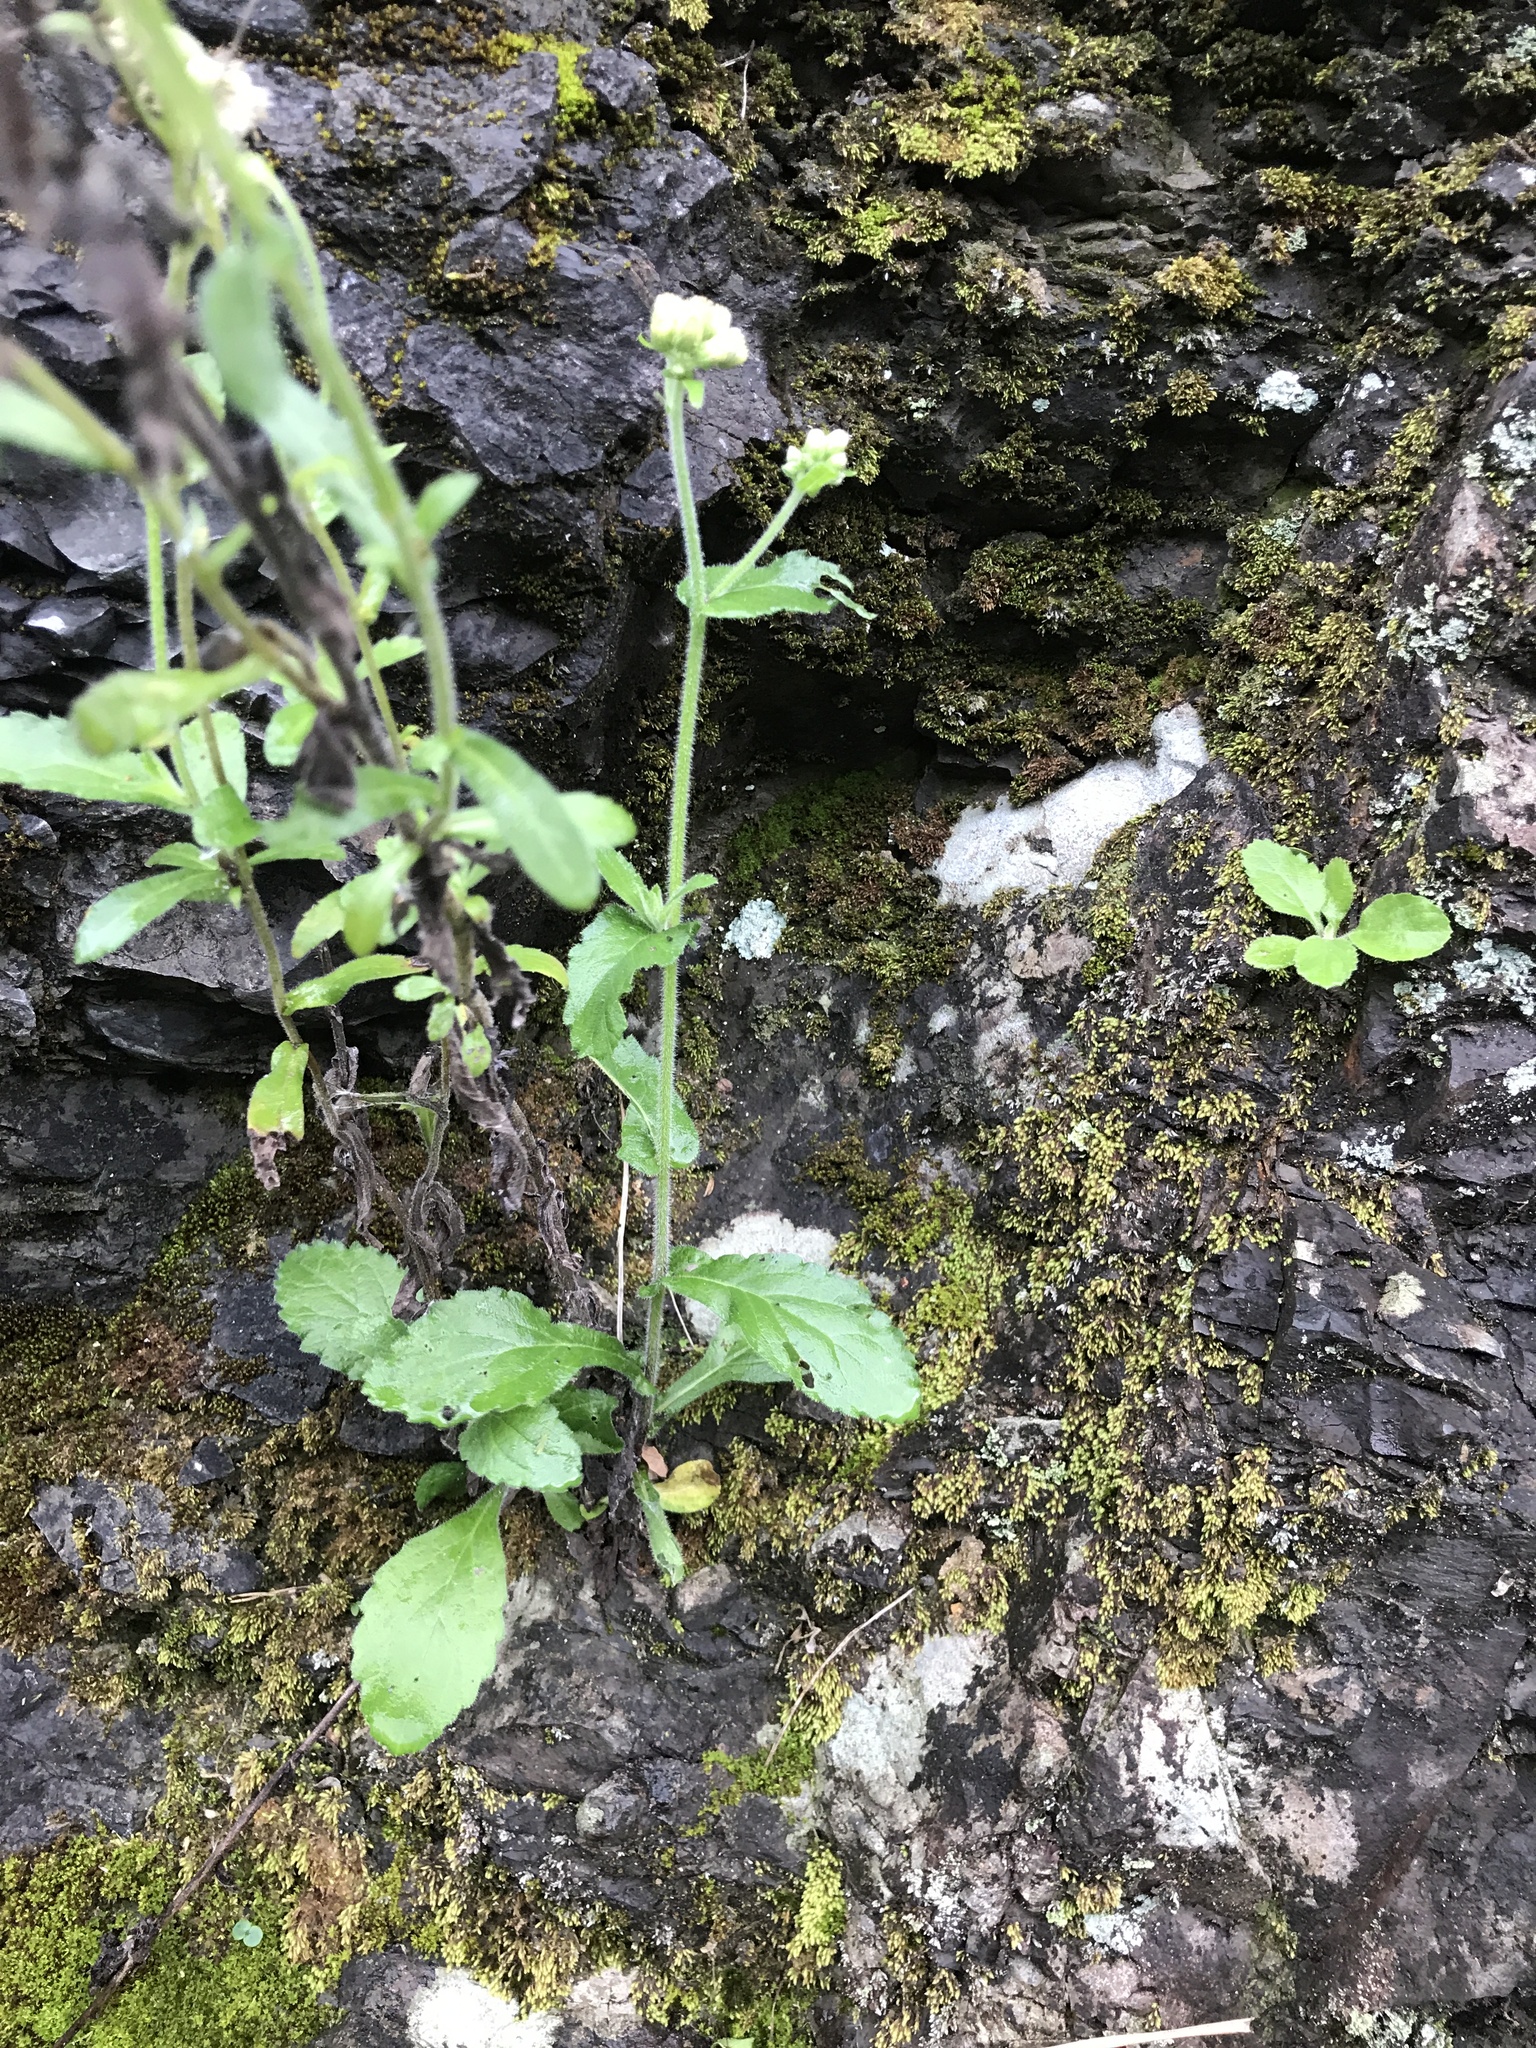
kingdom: Plantae
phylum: Tracheophyta
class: Magnoliopsida
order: Asterales
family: Asteraceae
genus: Eschenbachia
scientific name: Eschenbachia japonica
